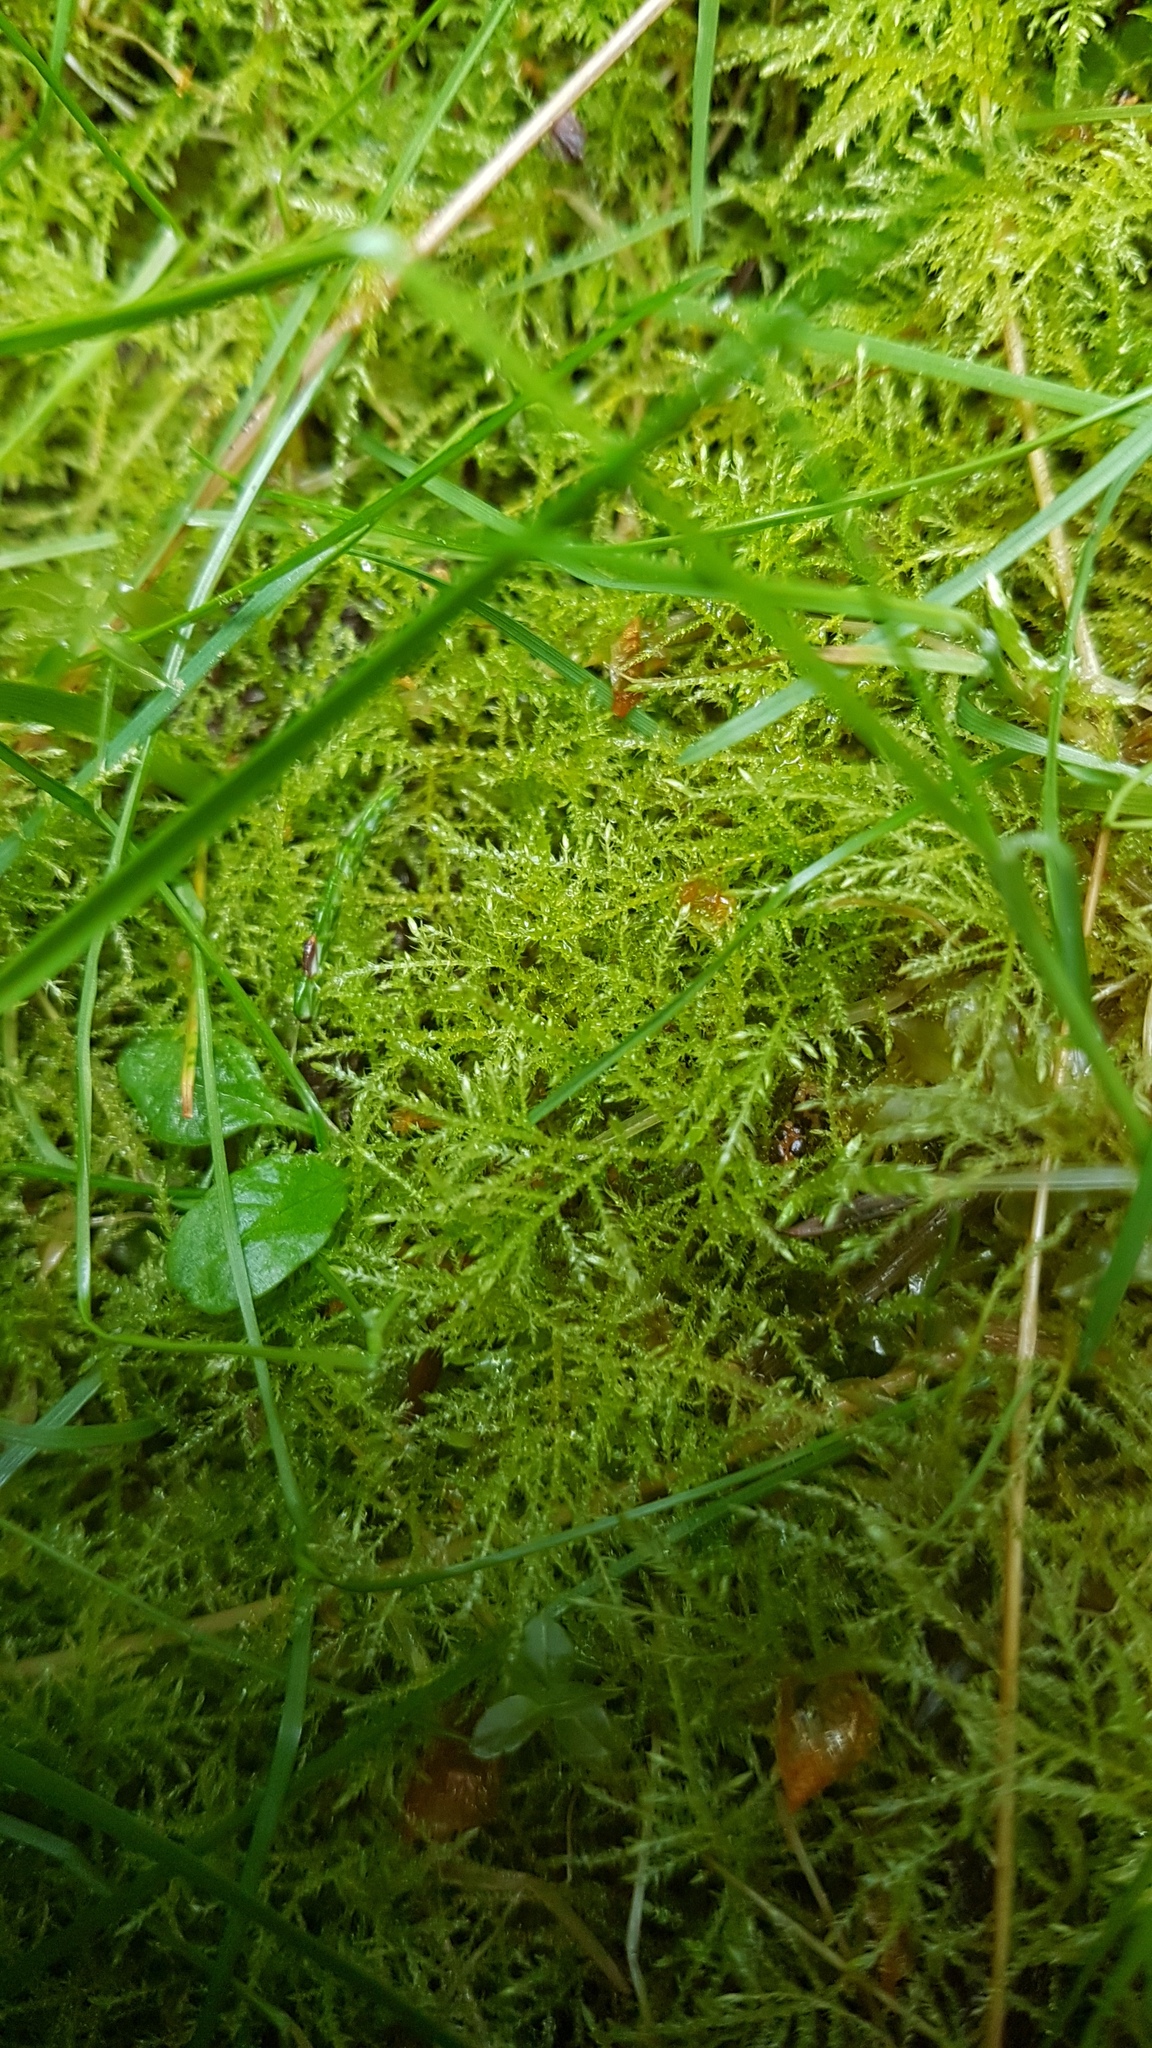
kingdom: Plantae
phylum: Bryophyta
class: Bryopsida
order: Hypnales
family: Brachytheciaceae
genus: Kindbergia
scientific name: Kindbergia praelonga
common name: Slender beaked moss
